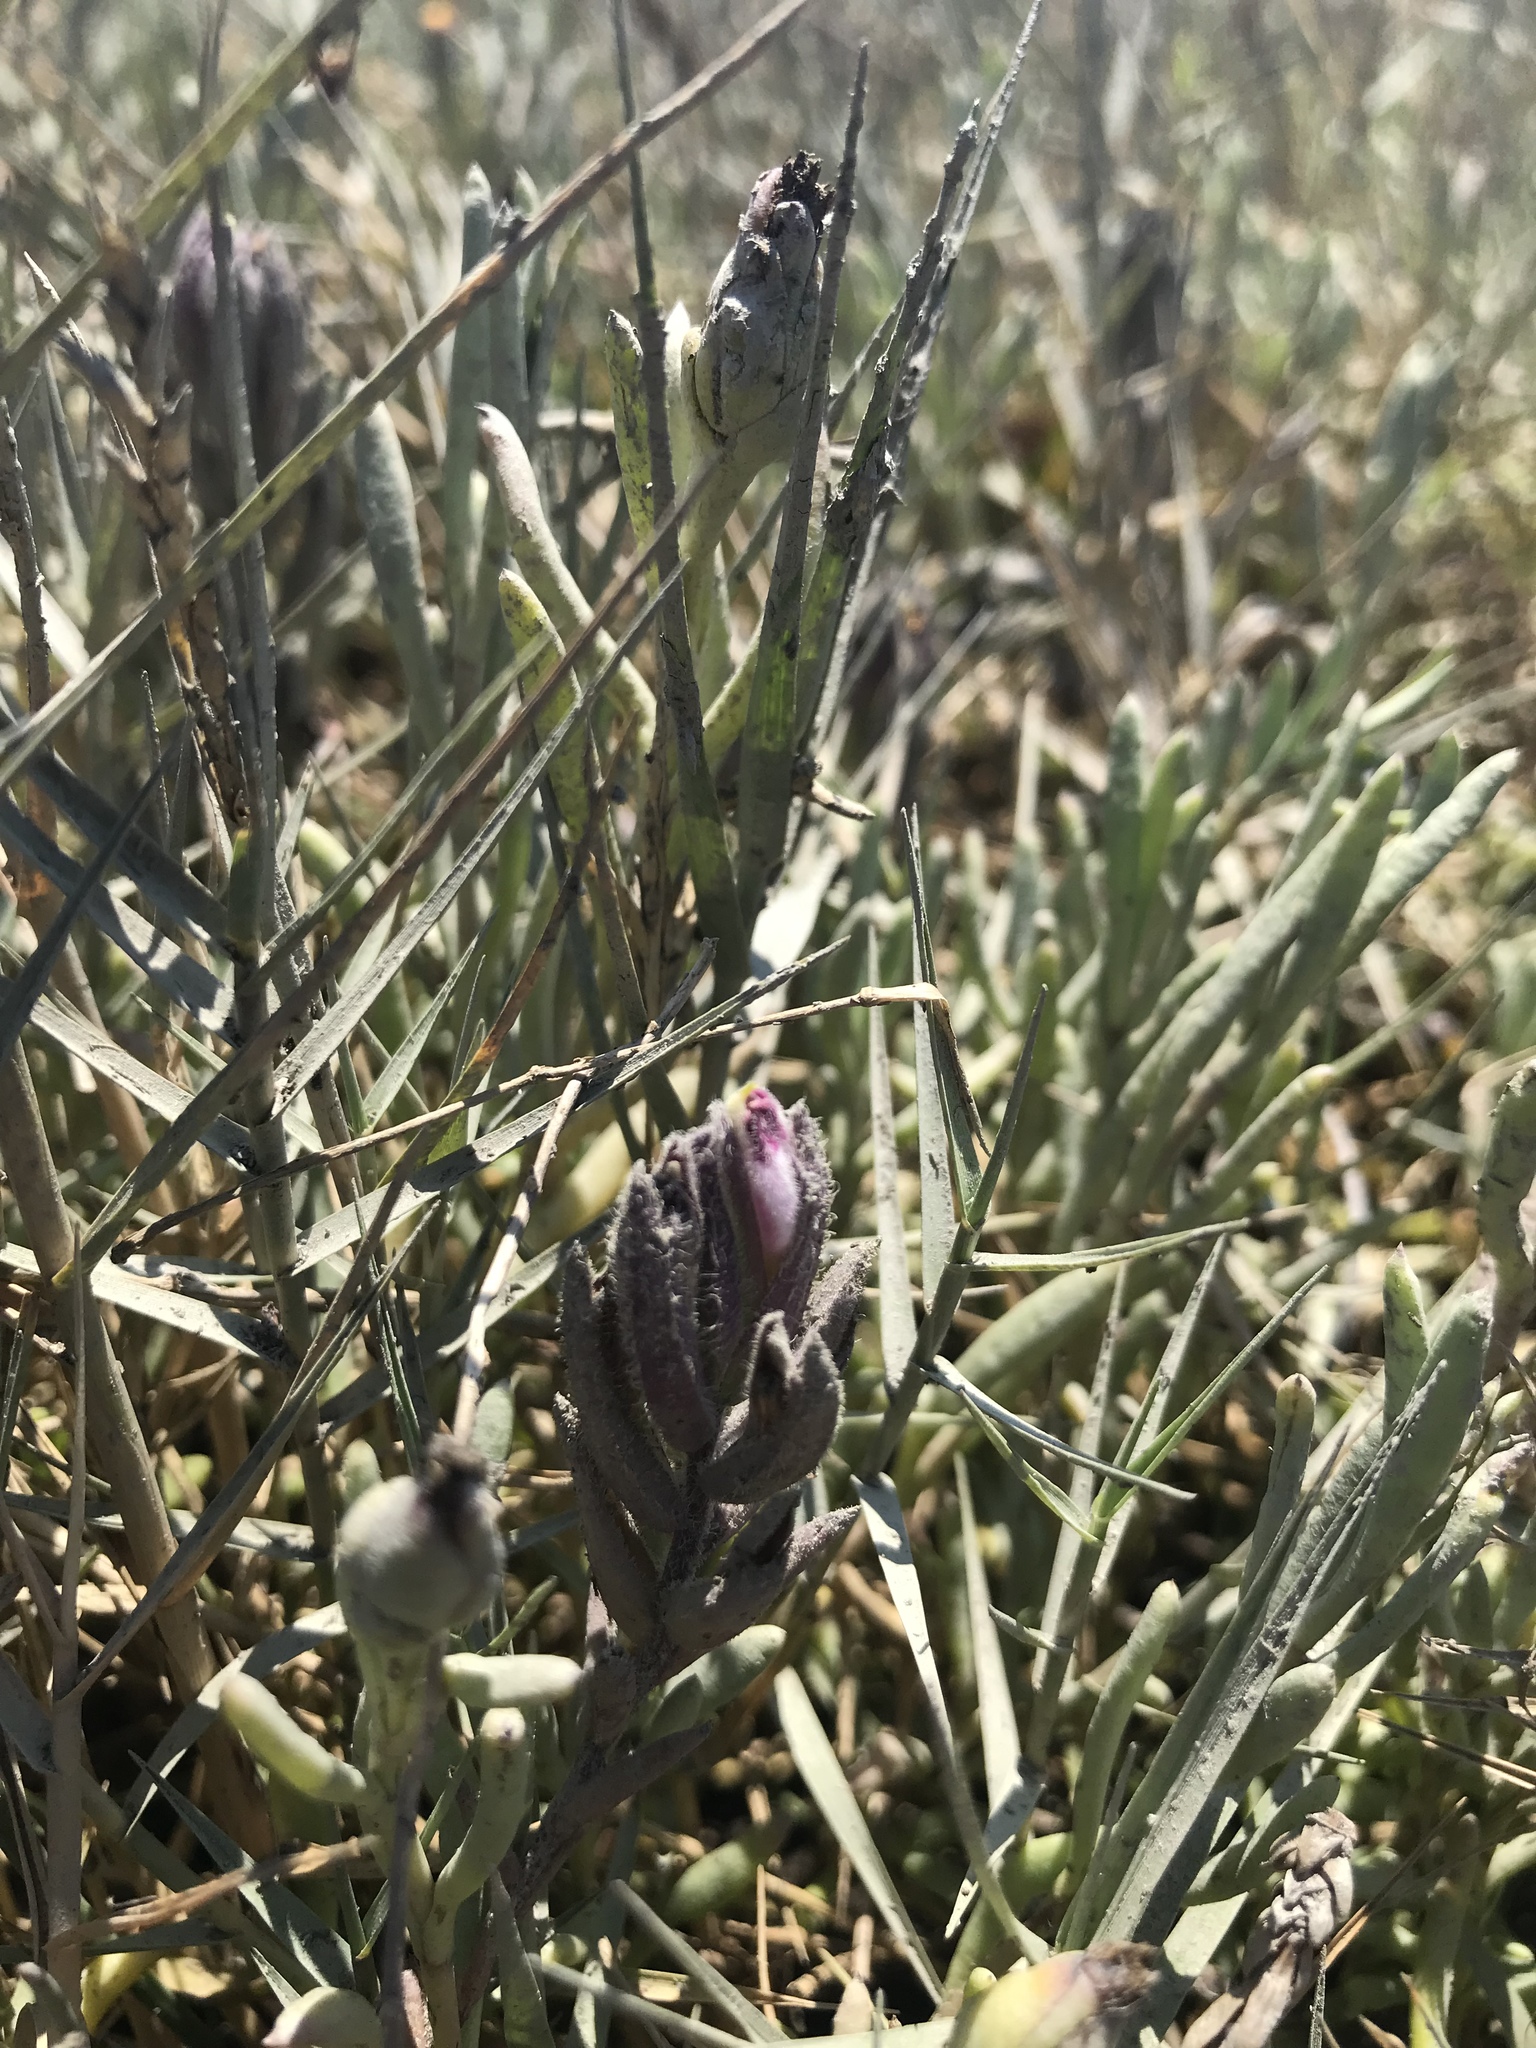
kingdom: Plantae
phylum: Tracheophyta
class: Magnoliopsida
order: Lamiales
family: Orobanchaceae
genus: Chloropyron
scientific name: Chloropyron maritimum
